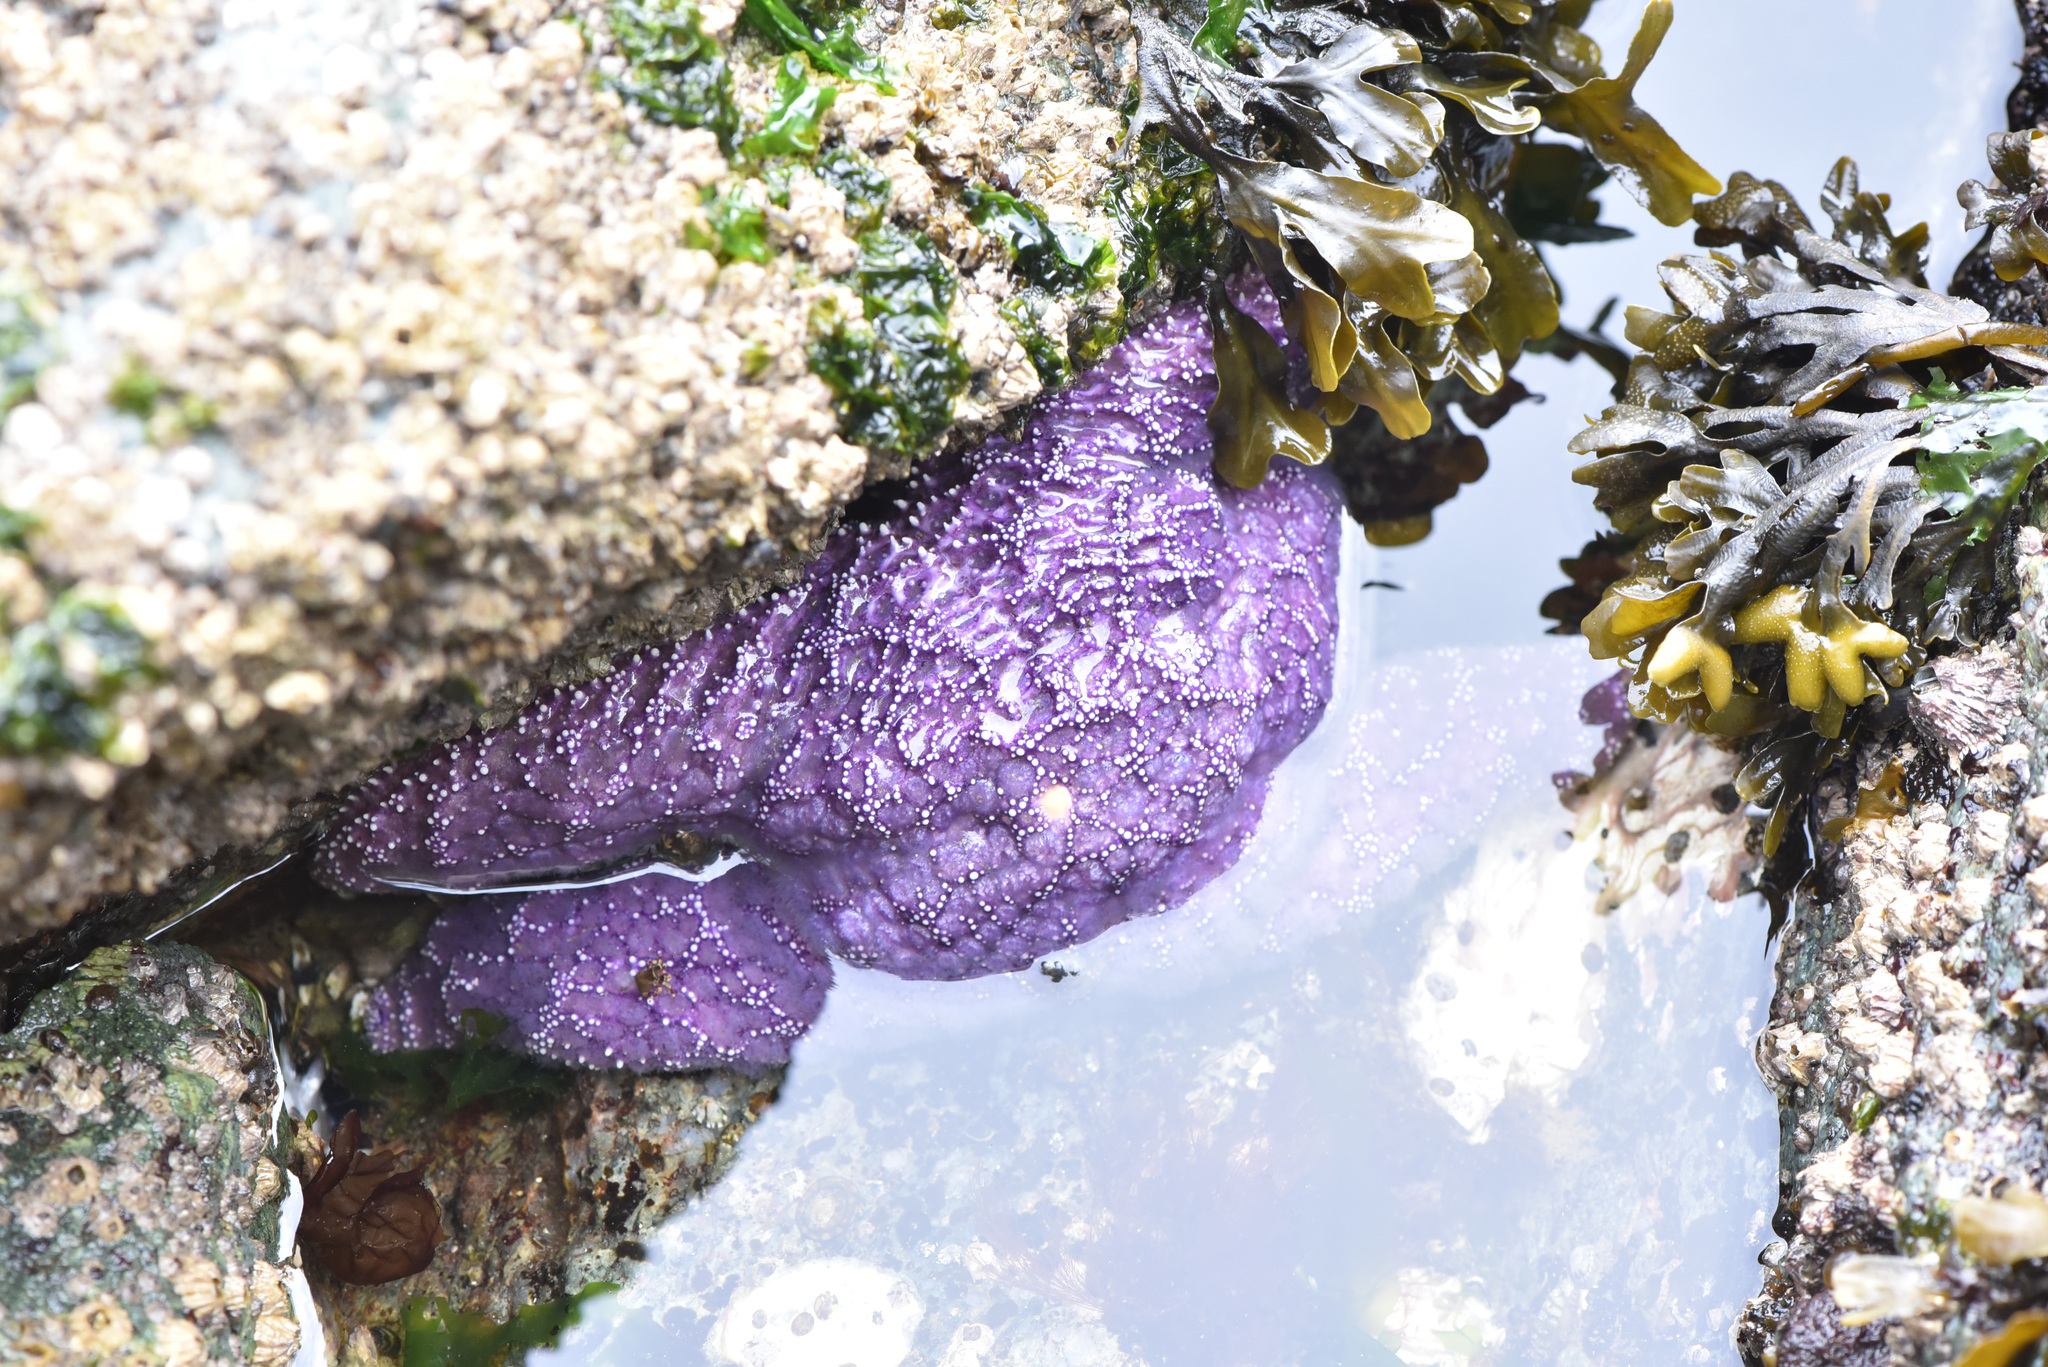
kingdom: Animalia
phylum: Echinodermata
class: Asteroidea
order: Forcipulatida
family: Asteriidae
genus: Pisaster
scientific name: Pisaster ochraceus
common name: Ochre stars
